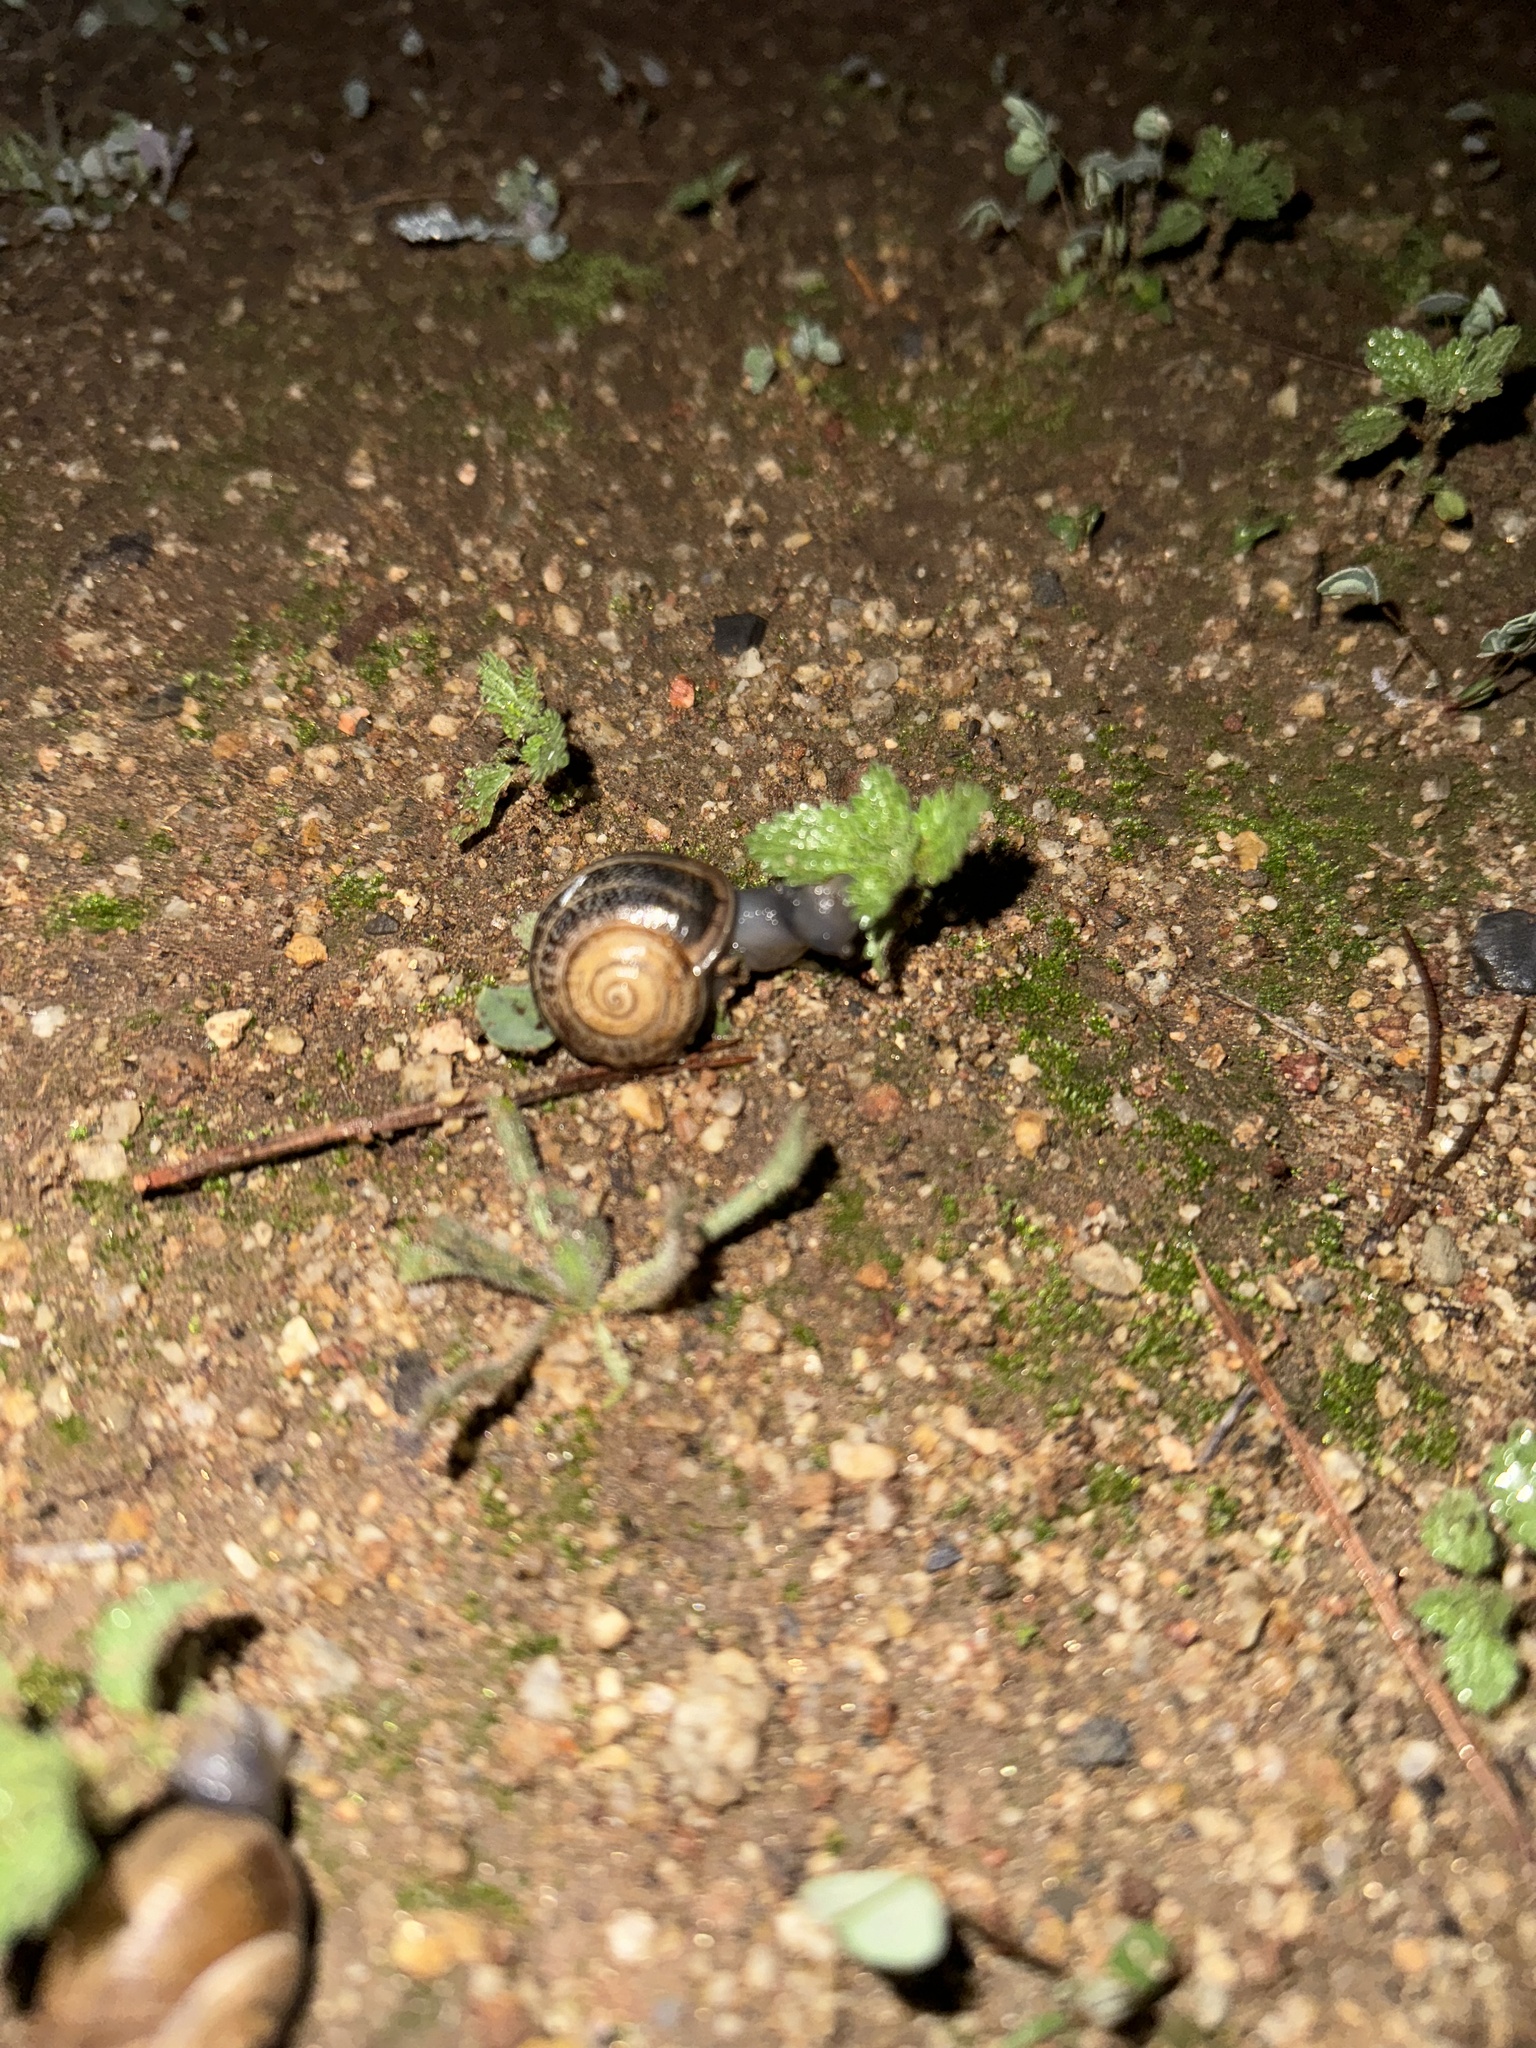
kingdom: Animalia
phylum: Mollusca
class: Gastropoda
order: Stylommatophora
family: Helicidae
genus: Otala
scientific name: Otala lactea
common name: Milk snail
